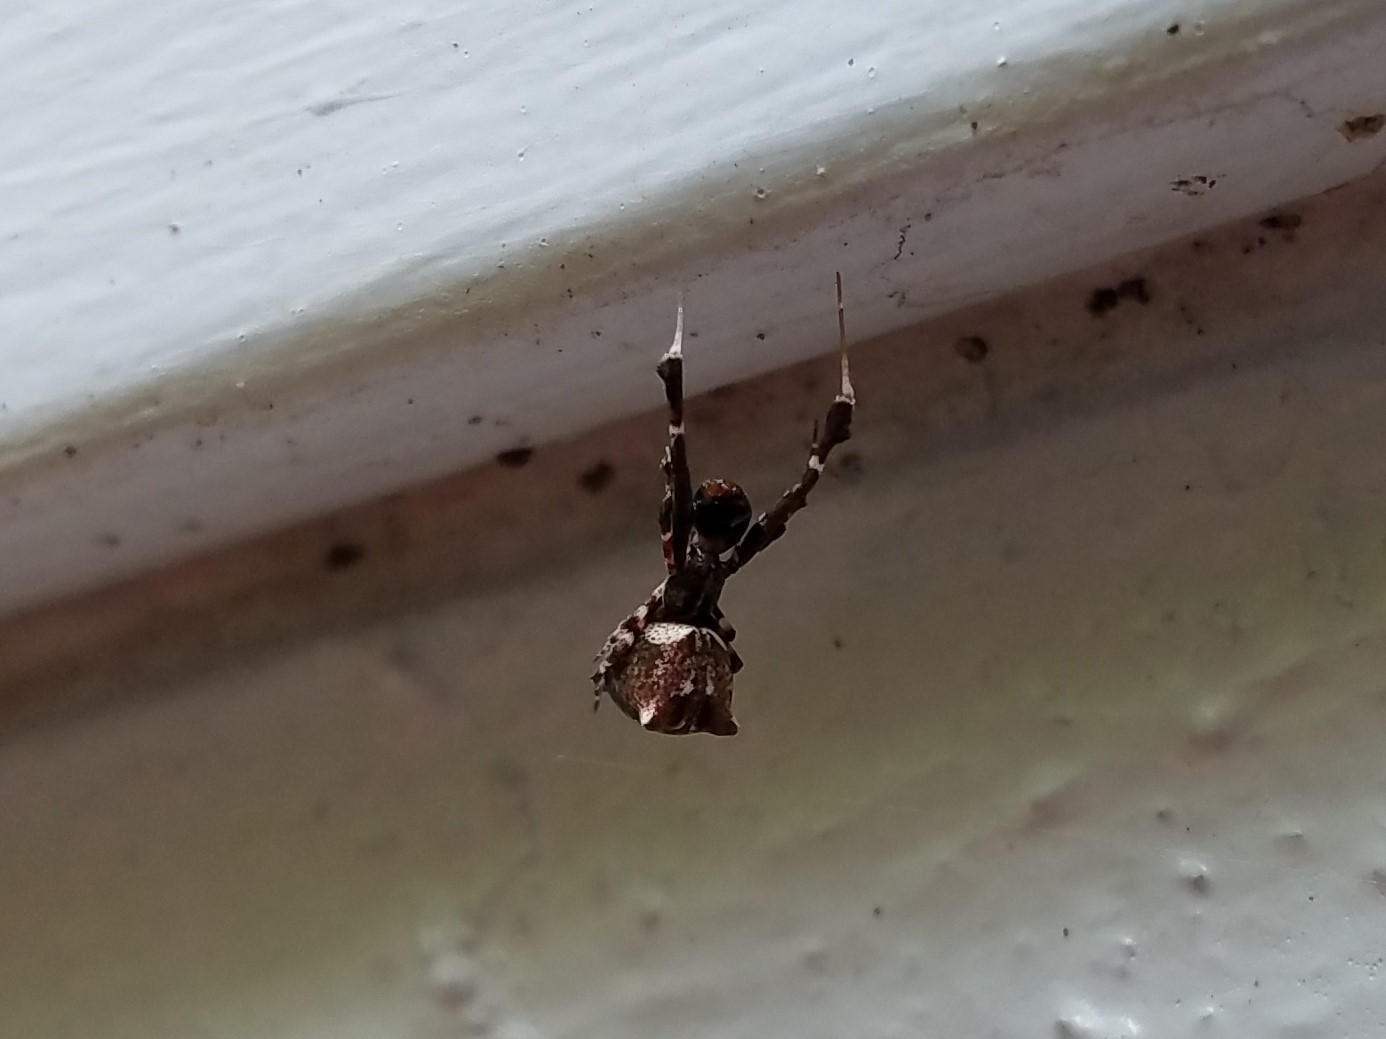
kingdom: Animalia
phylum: Arthropoda
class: Arachnida
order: Araneae
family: Uloboridae
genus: Uloborus
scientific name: Uloborus glomosus
